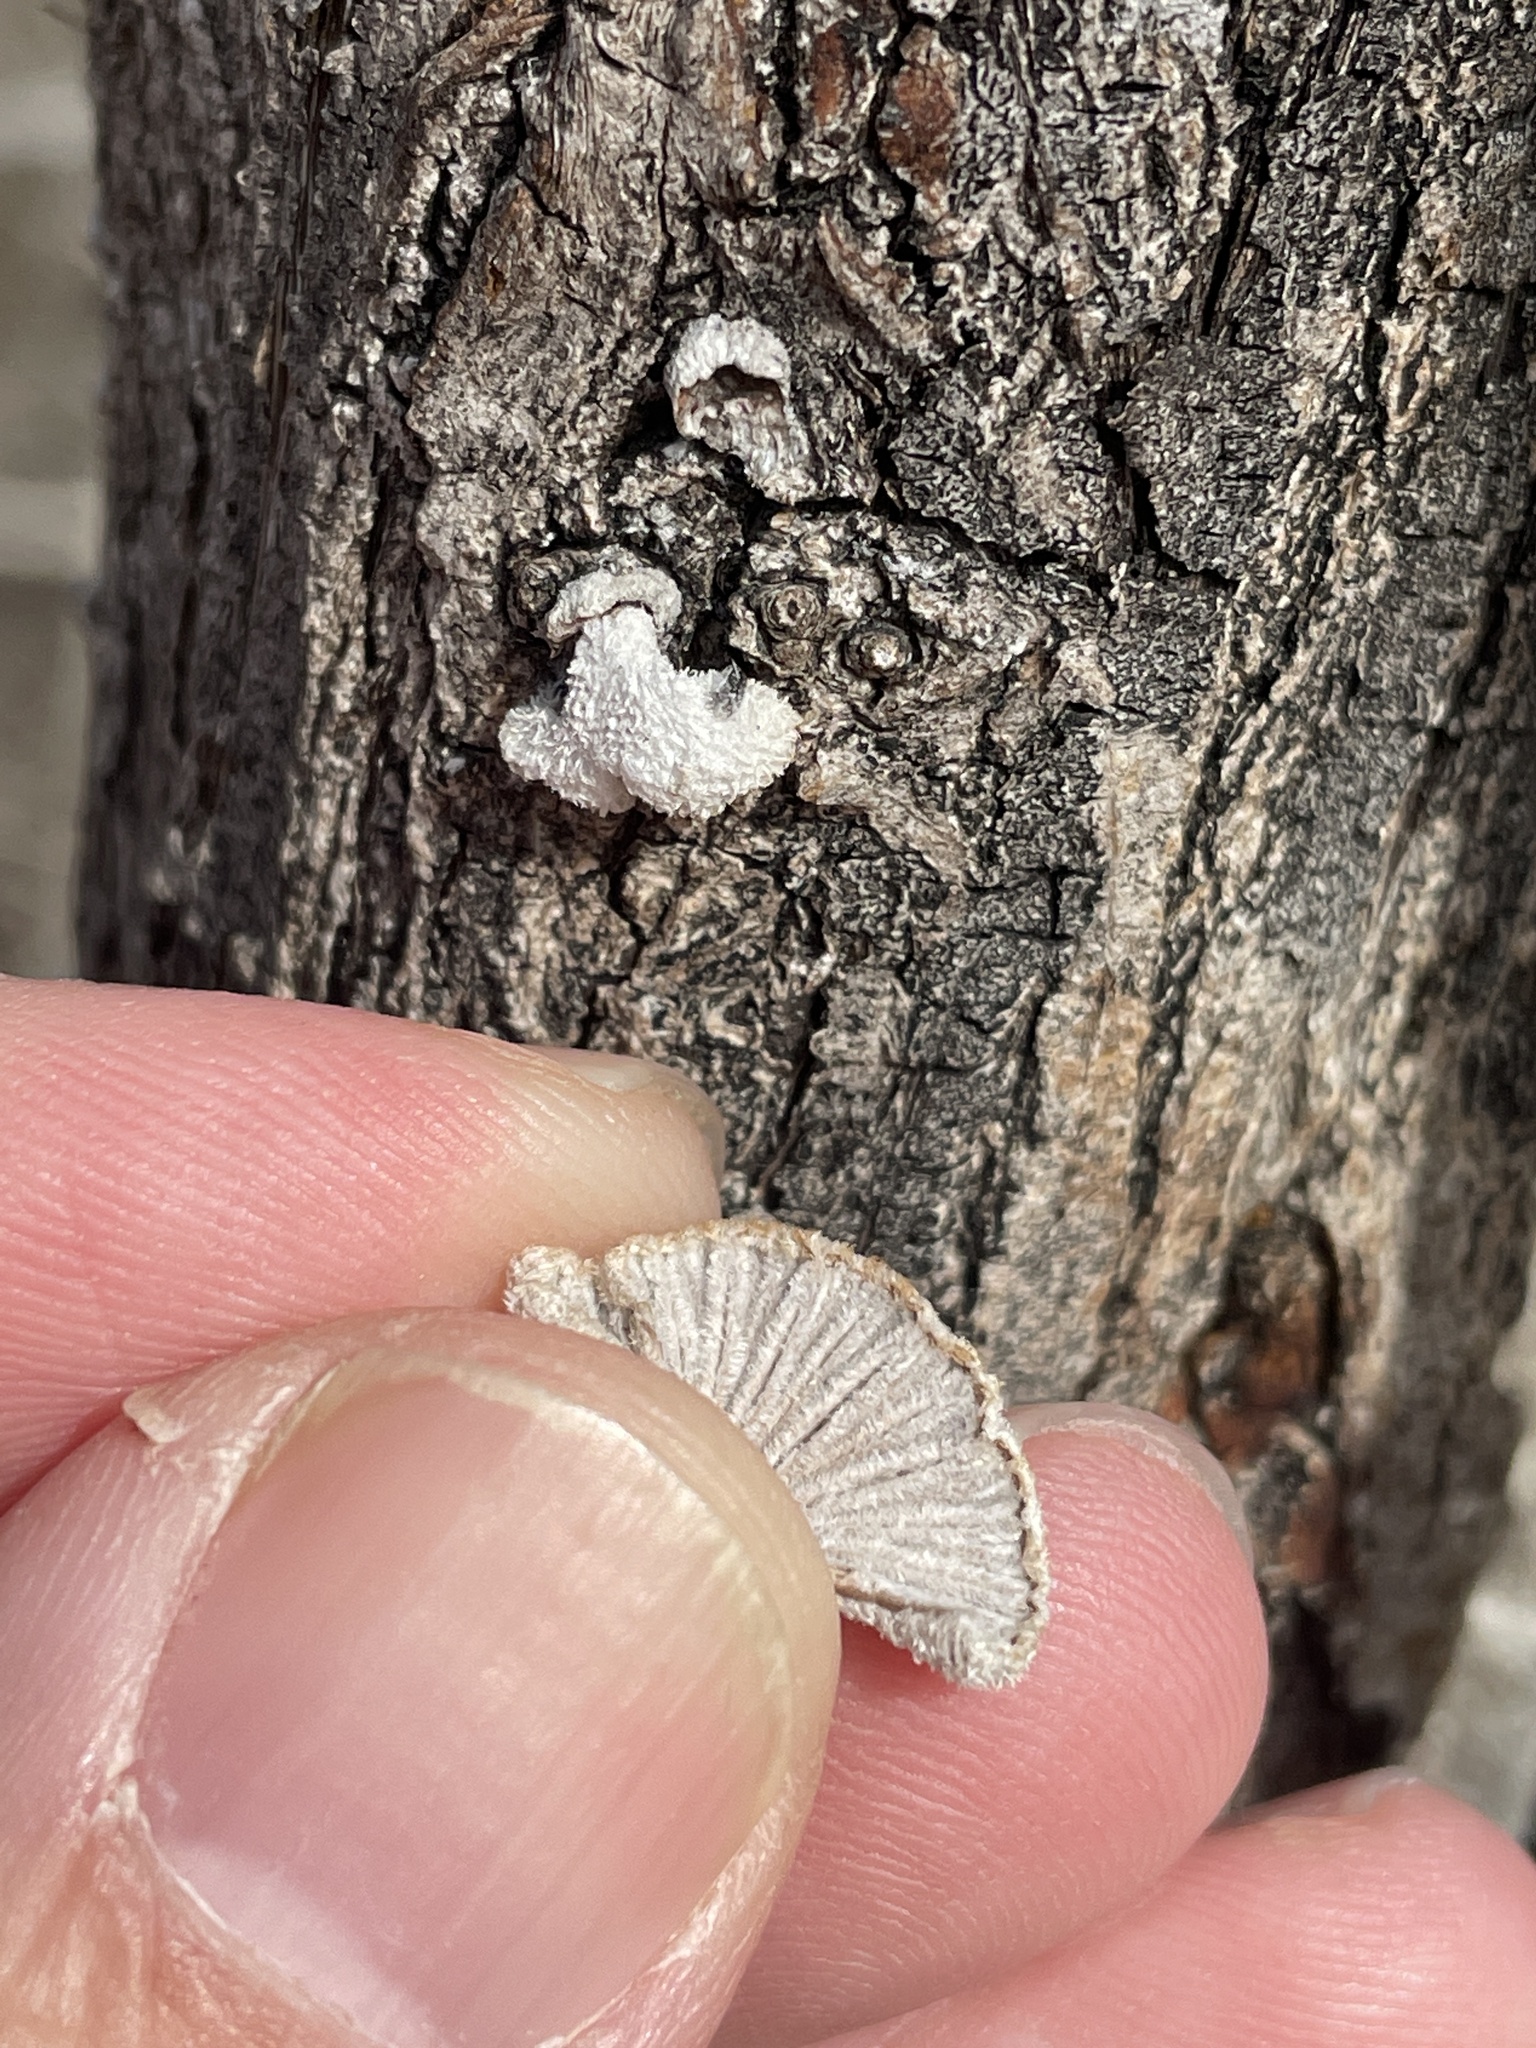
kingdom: Fungi
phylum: Basidiomycota
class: Agaricomycetes
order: Agaricales
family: Schizophyllaceae
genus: Schizophyllum
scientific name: Schizophyllum commune
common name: Common porecrust
